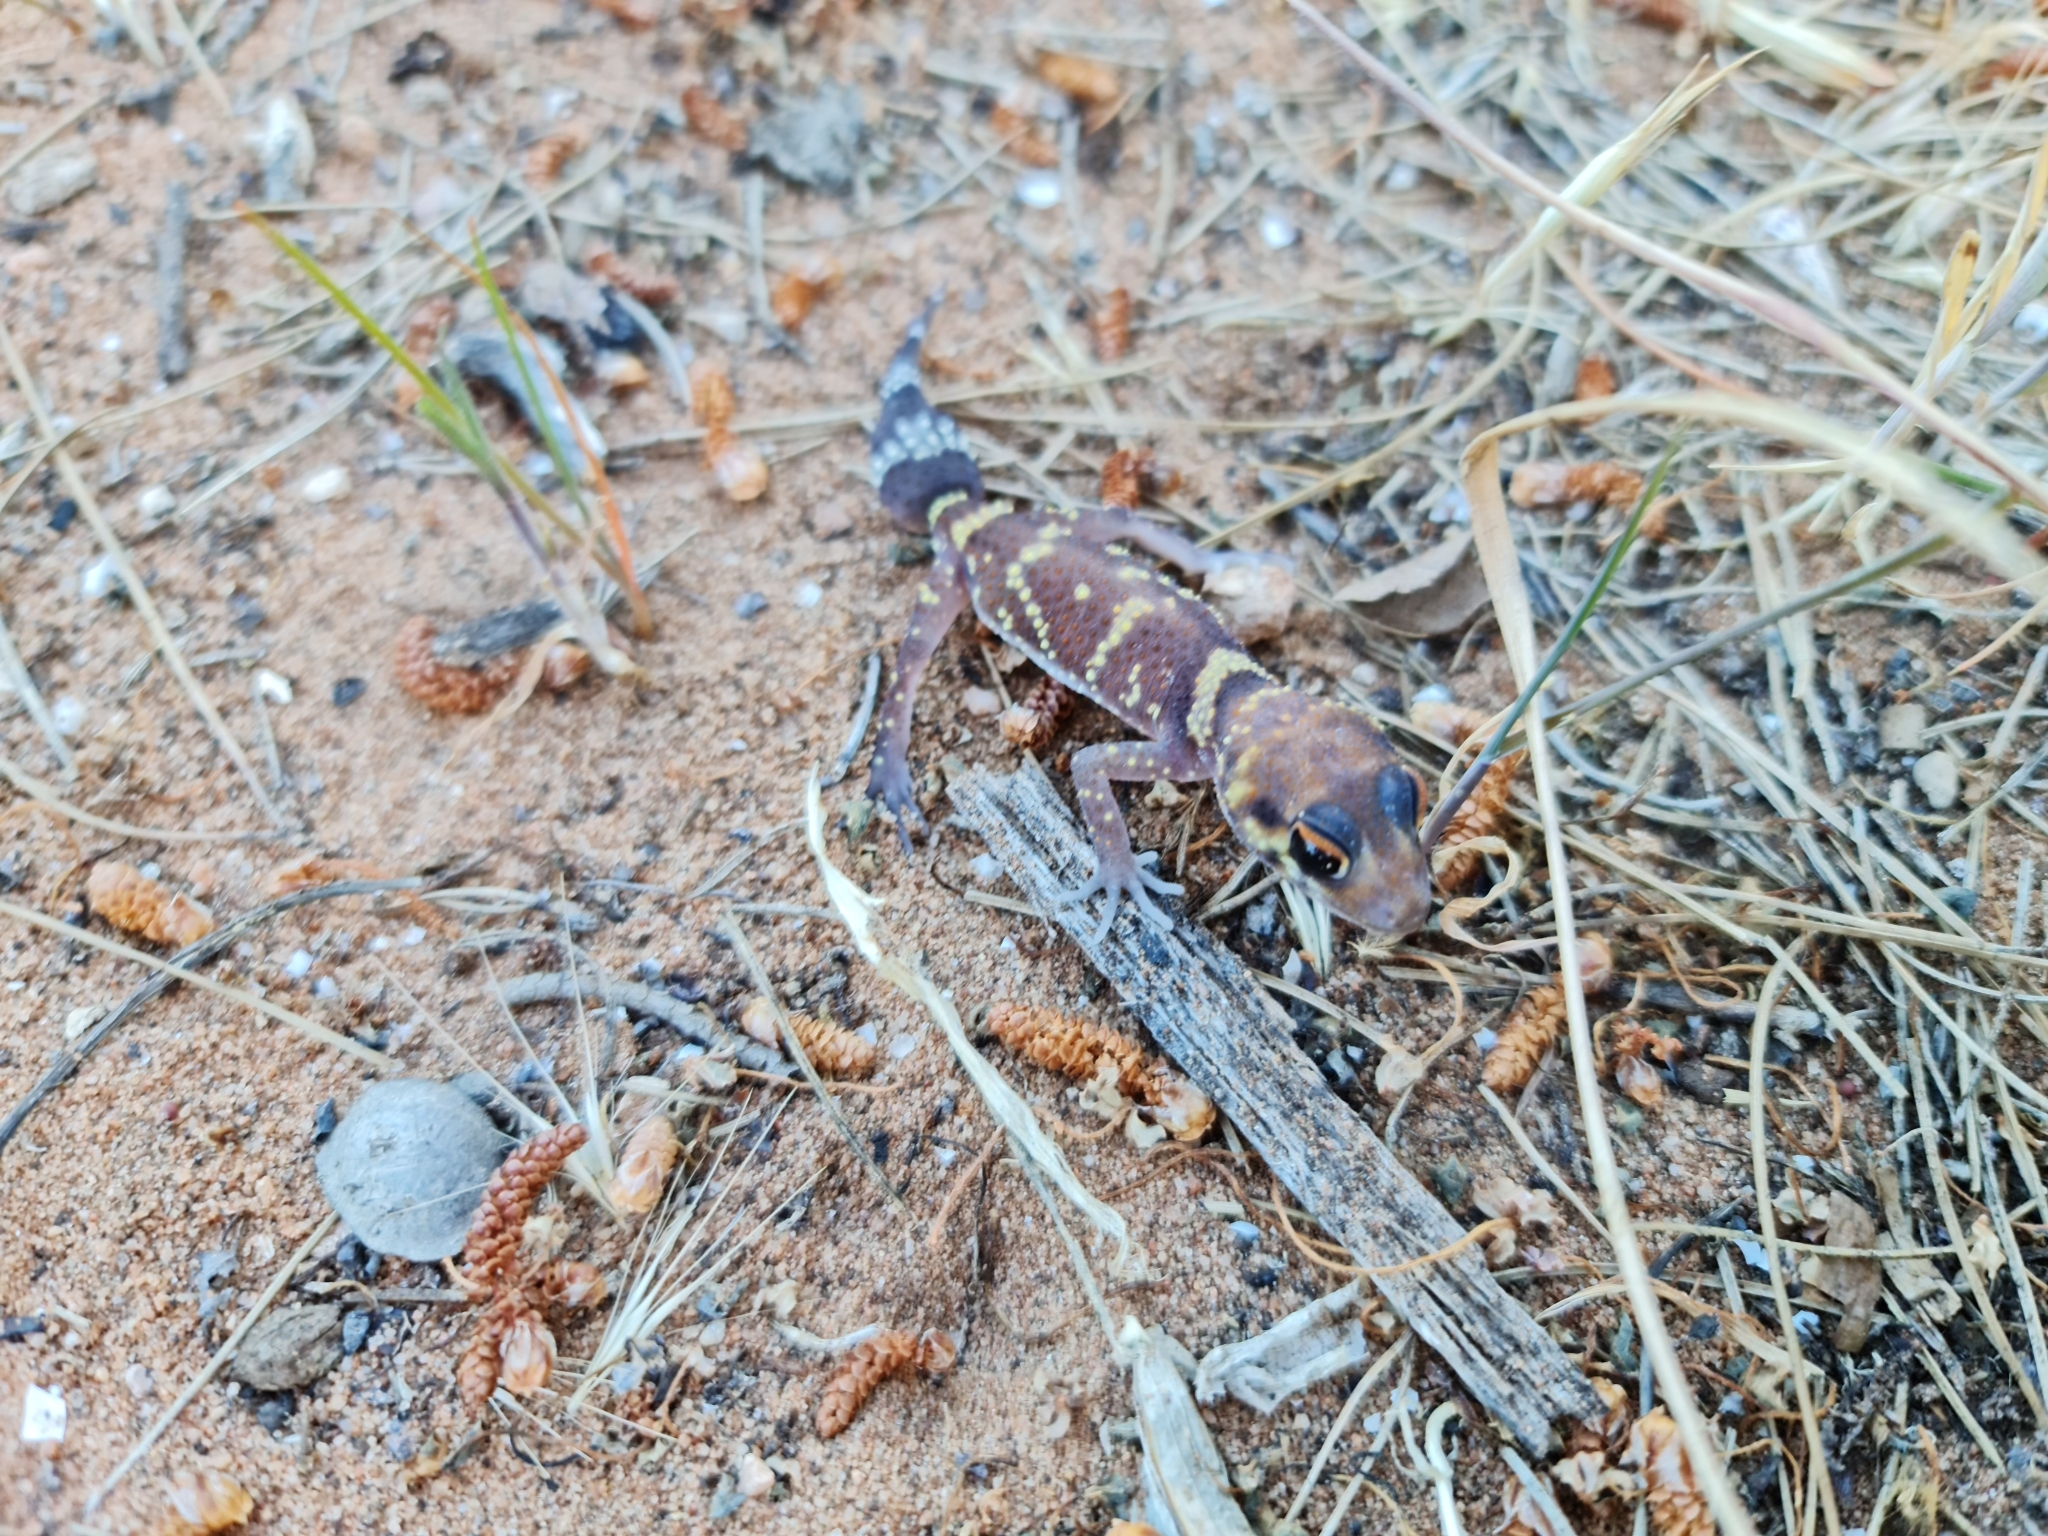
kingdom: Animalia
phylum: Chordata
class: Squamata
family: Carphodactylidae
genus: Underwoodisaurus
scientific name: Underwoodisaurus milii
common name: Barking gecko
